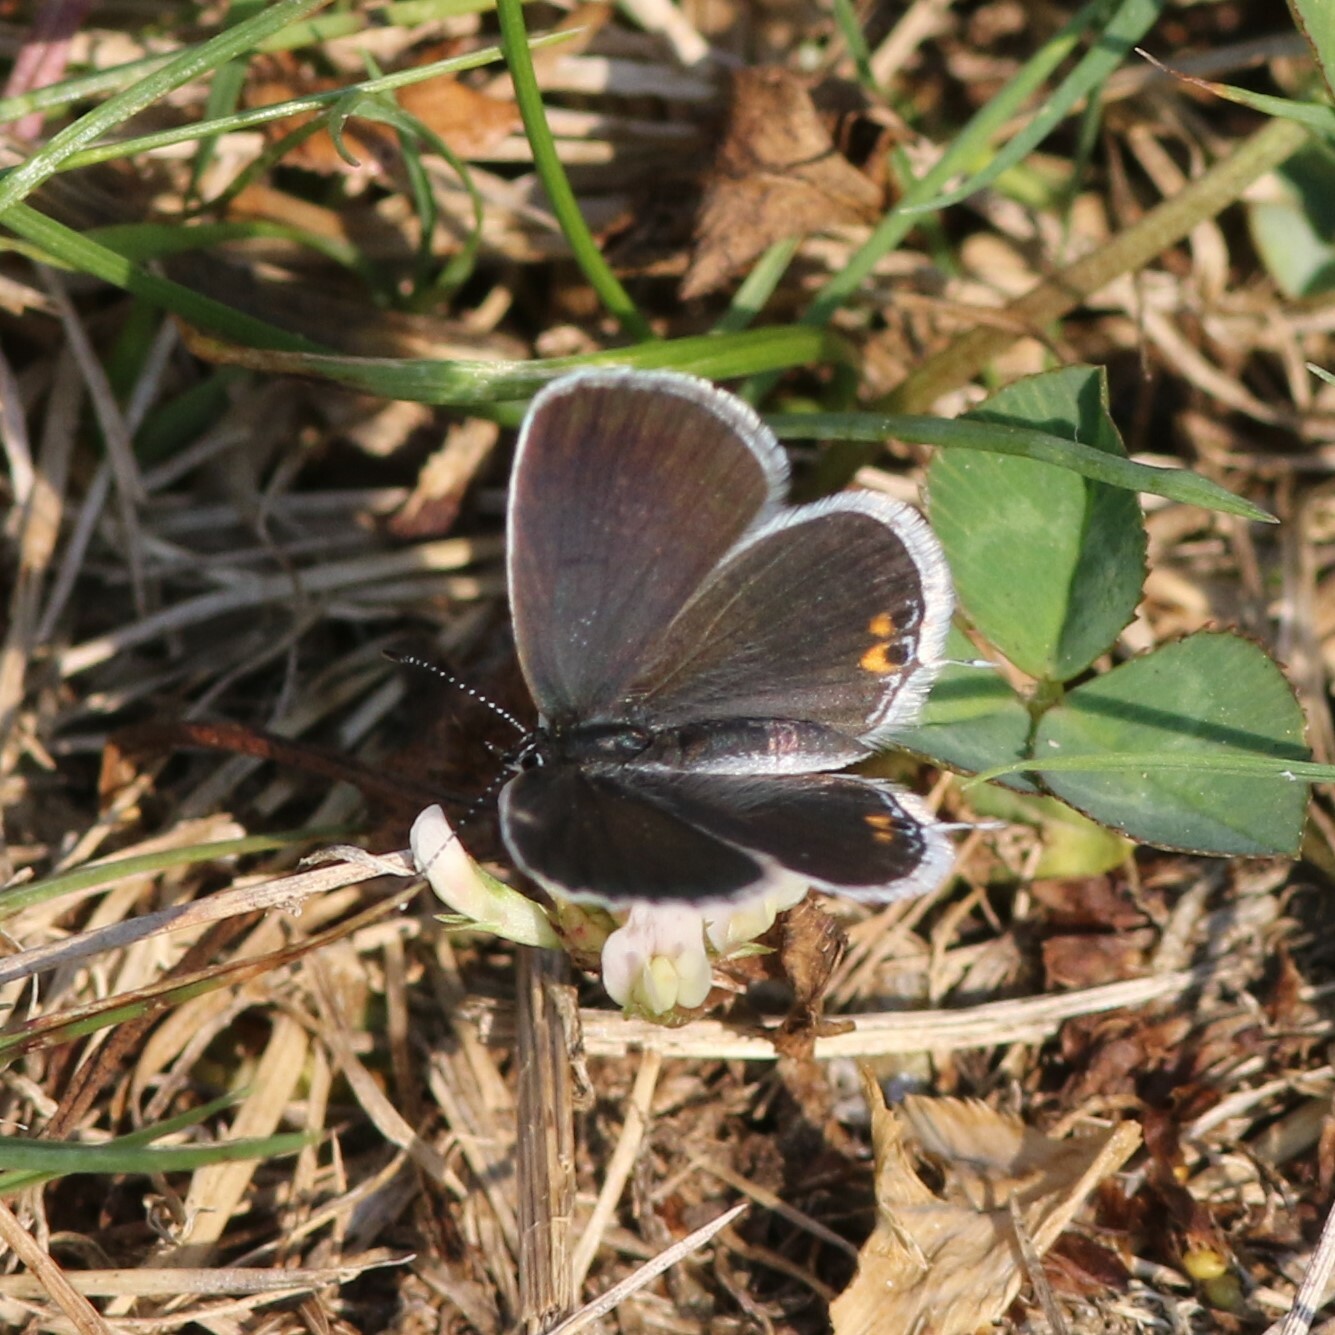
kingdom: Animalia
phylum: Arthropoda
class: Insecta
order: Lepidoptera
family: Lycaenidae
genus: Elkalyce
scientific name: Elkalyce comyntas
